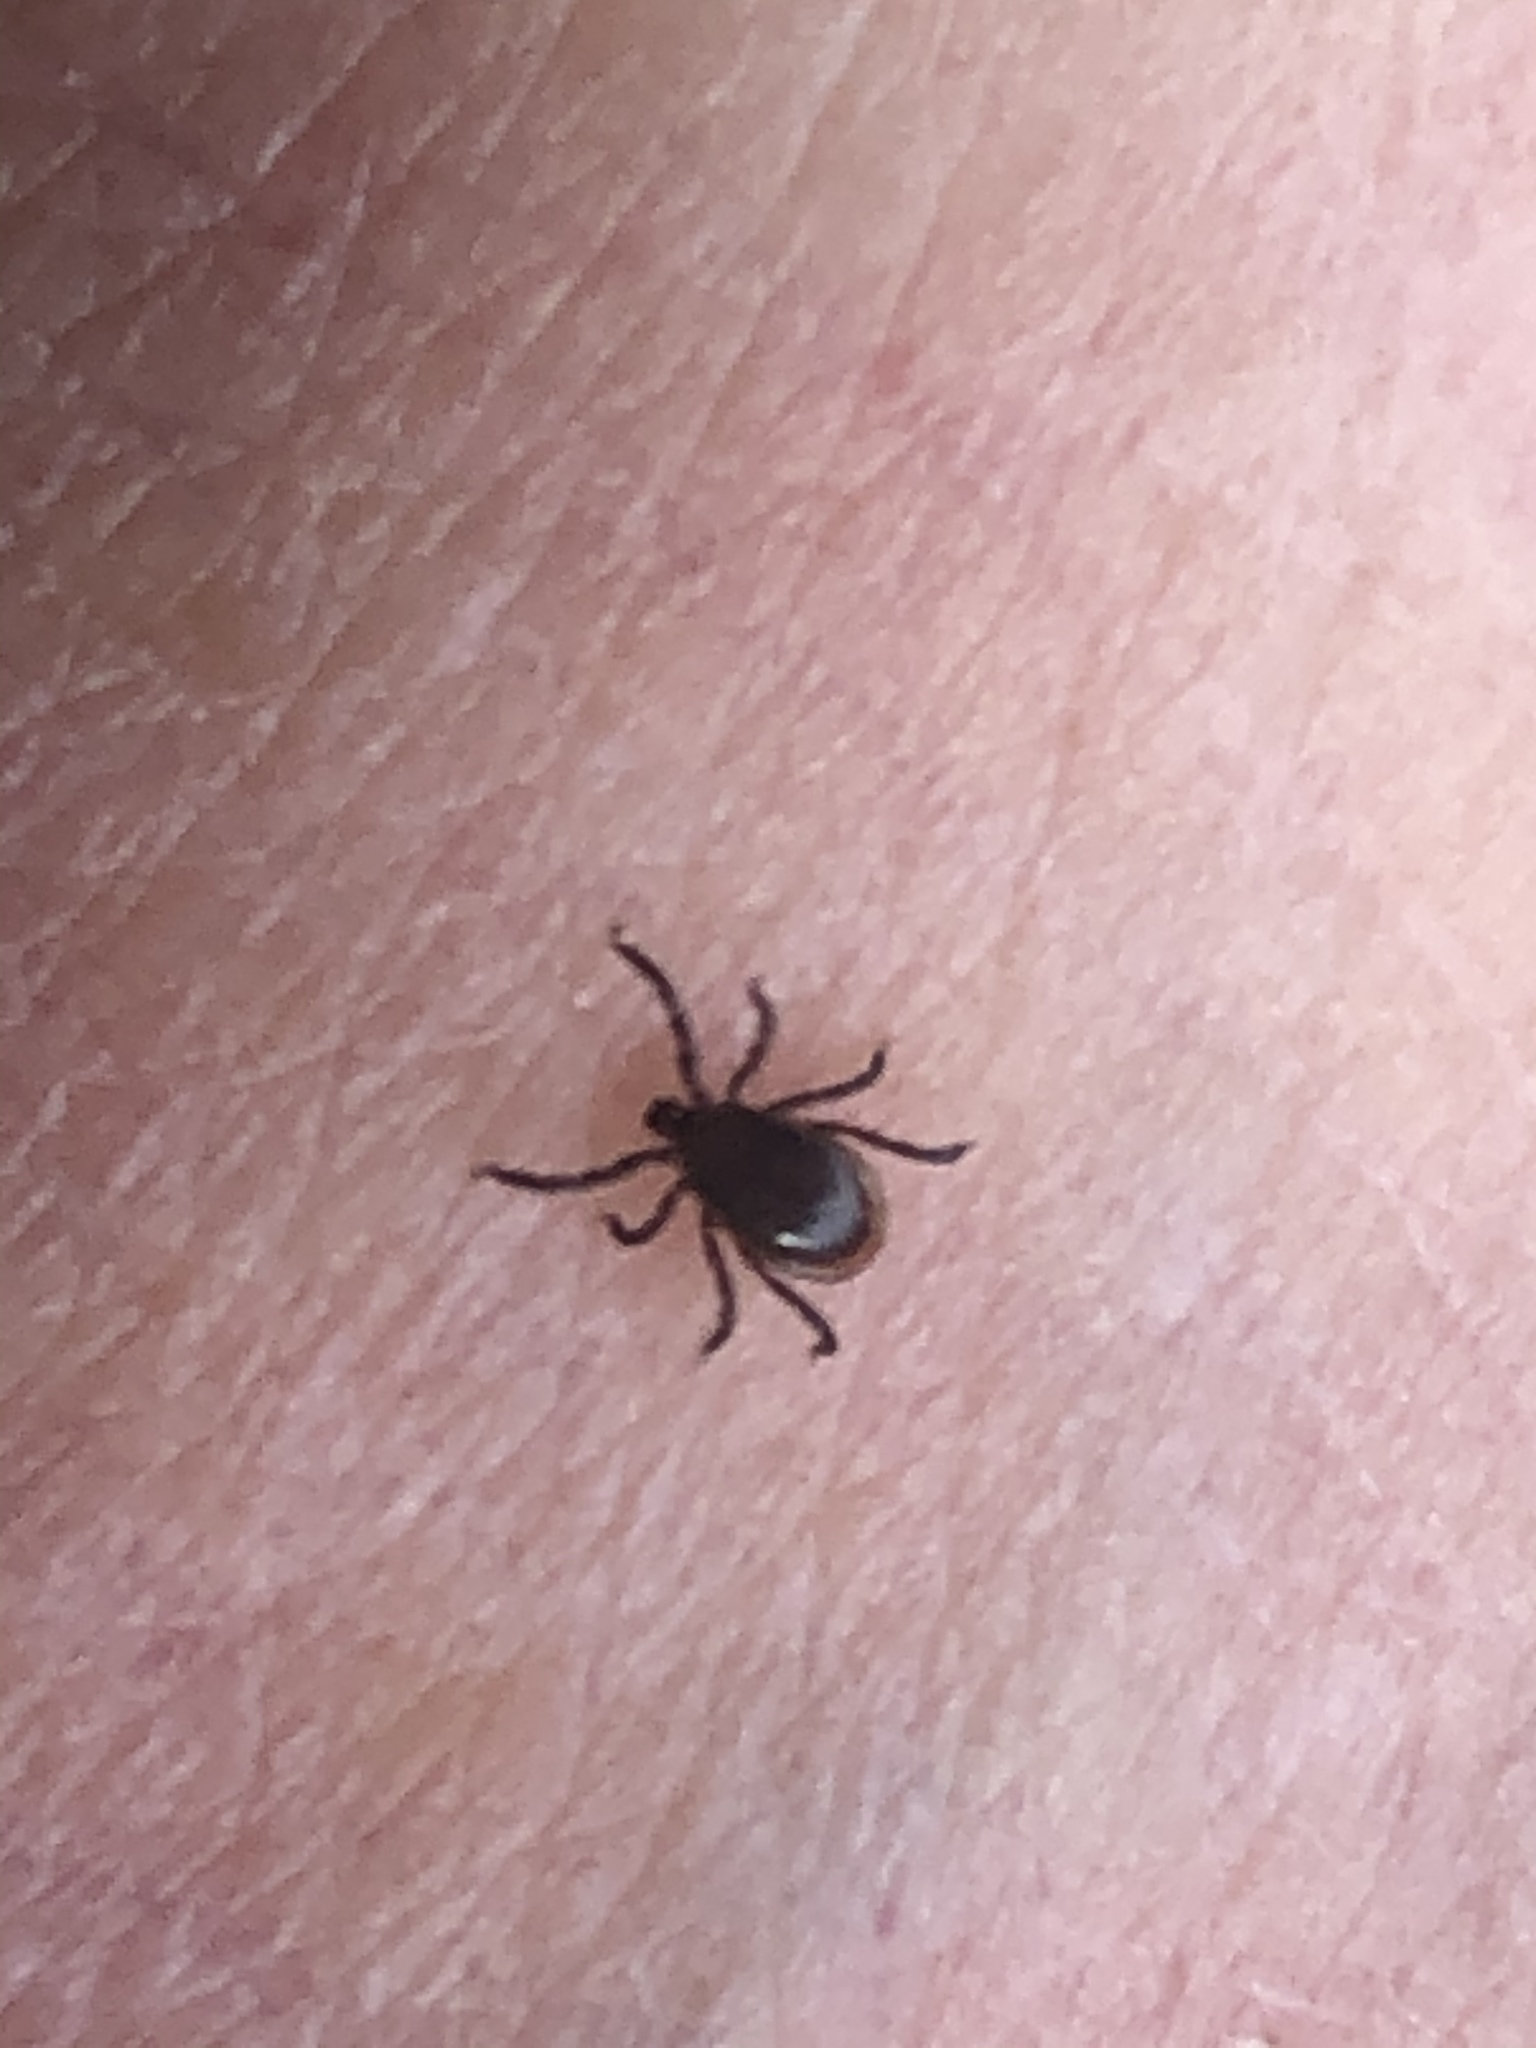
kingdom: Animalia
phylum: Arthropoda
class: Arachnida
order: Ixodida
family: Ixodidae
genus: Ixodes
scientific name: Ixodes scapularis
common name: Black legged tick
